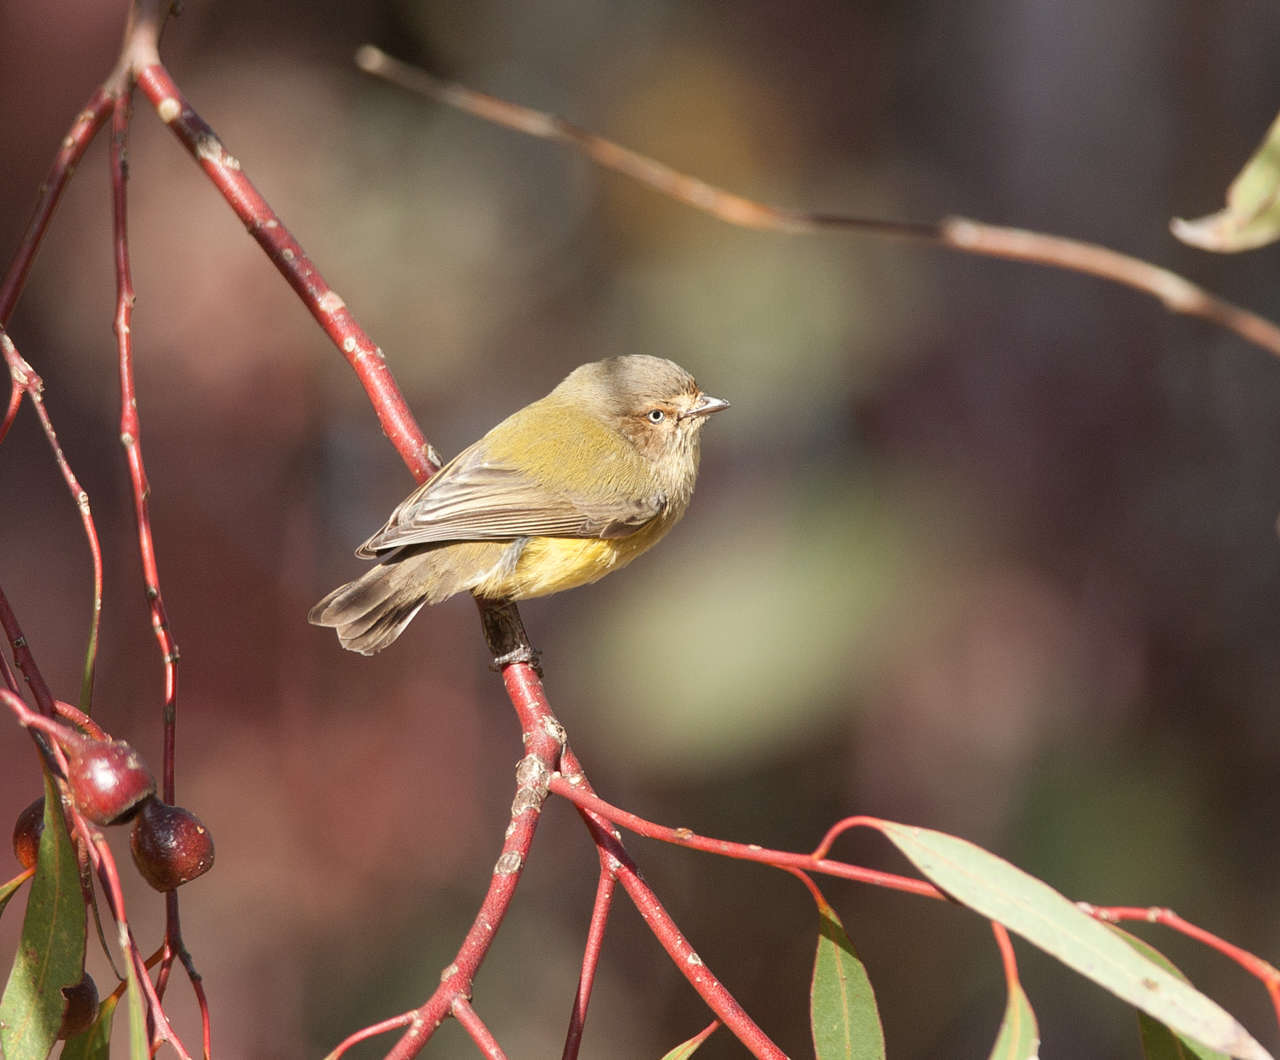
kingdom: Animalia
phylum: Chordata
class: Aves
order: Passeriformes
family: Acanthizidae
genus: Smicrornis
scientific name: Smicrornis brevirostris
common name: Weebill
